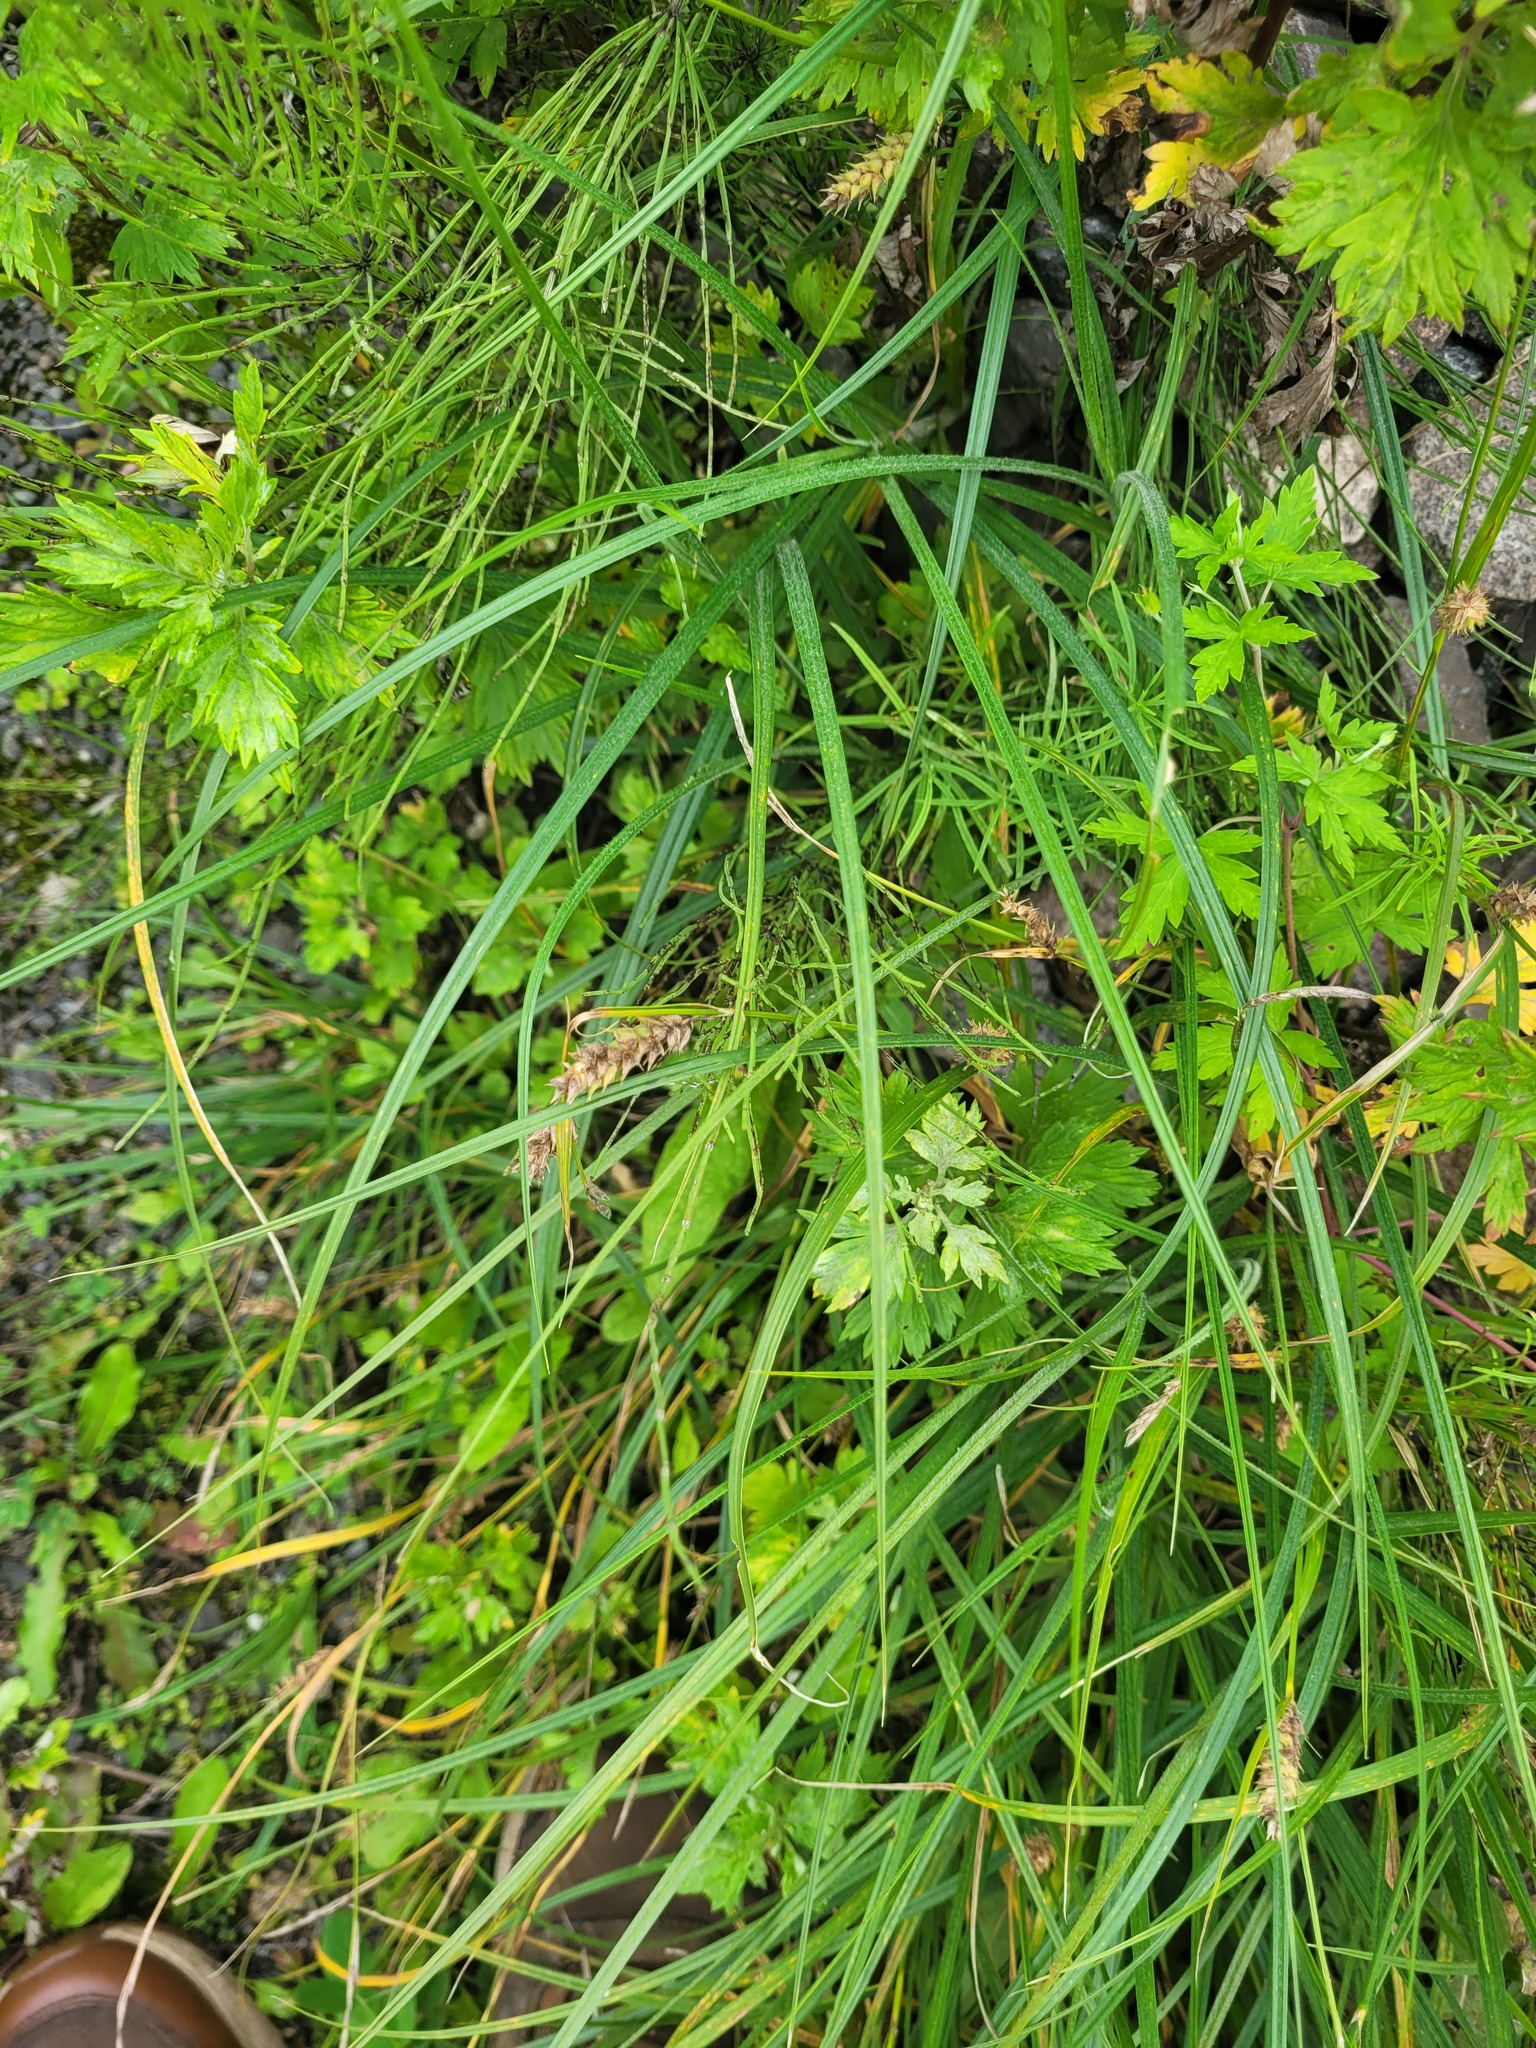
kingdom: Plantae
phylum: Tracheophyta
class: Liliopsida
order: Poales
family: Cyperaceae
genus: Carex
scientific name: Carex hirta
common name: Hairy sedge
